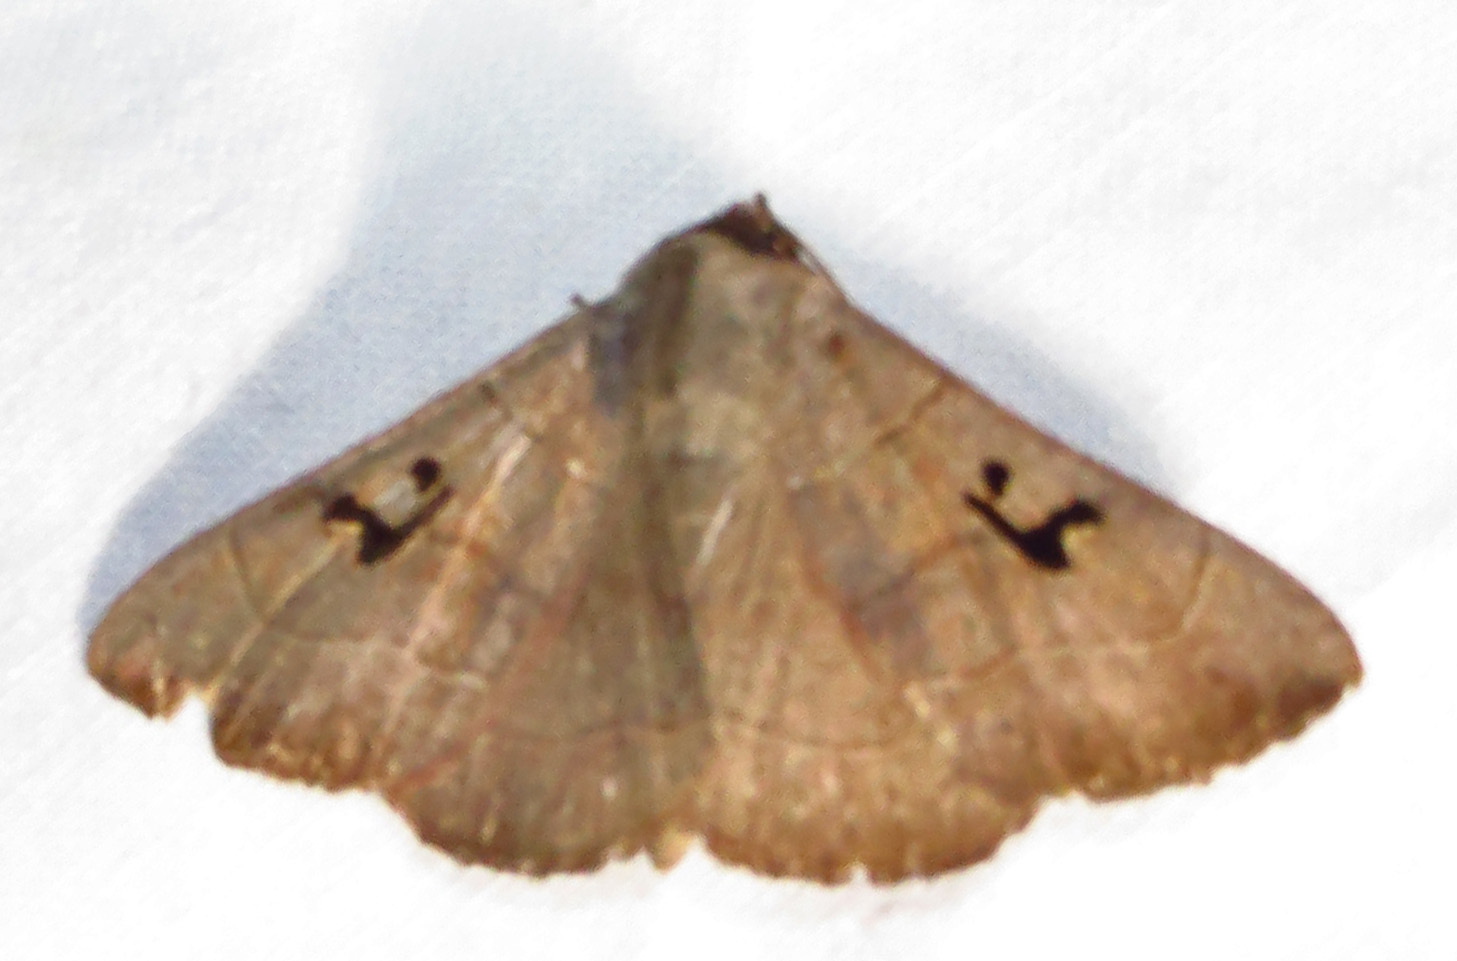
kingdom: Animalia
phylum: Arthropoda
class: Insecta
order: Lepidoptera
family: Erebidae
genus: Panopoda
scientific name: Panopoda carneicosta
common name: Brown panopoda moth
